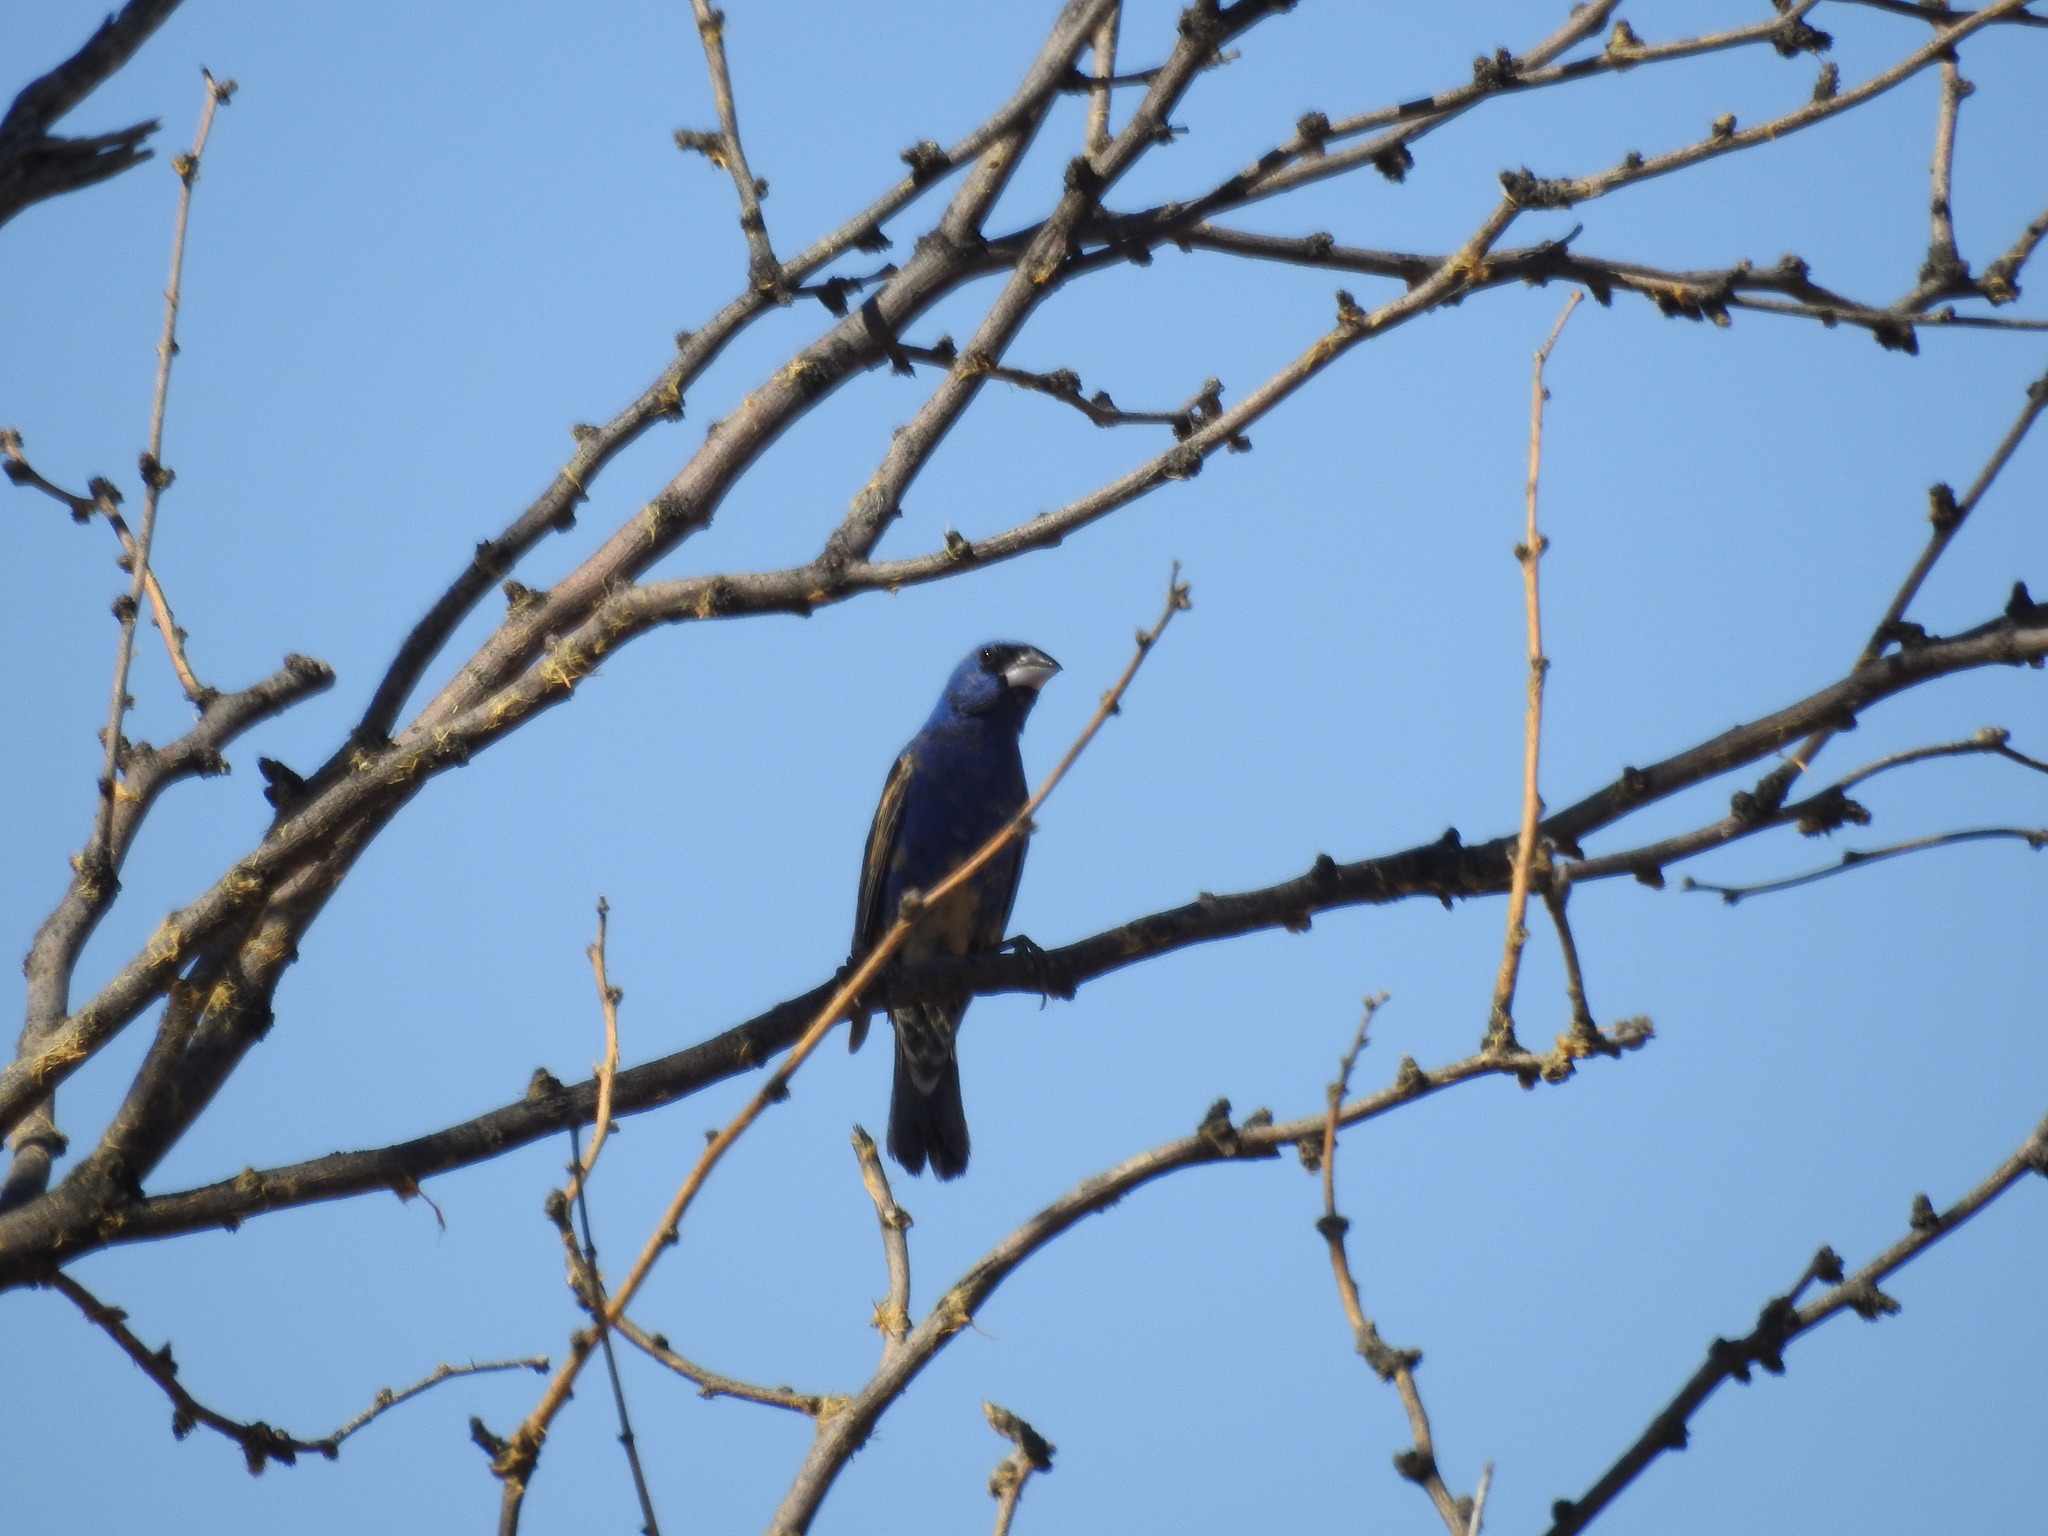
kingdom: Animalia
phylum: Chordata
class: Aves
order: Passeriformes
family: Cardinalidae
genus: Passerina
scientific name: Passerina caerulea
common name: Blue grosbeak
